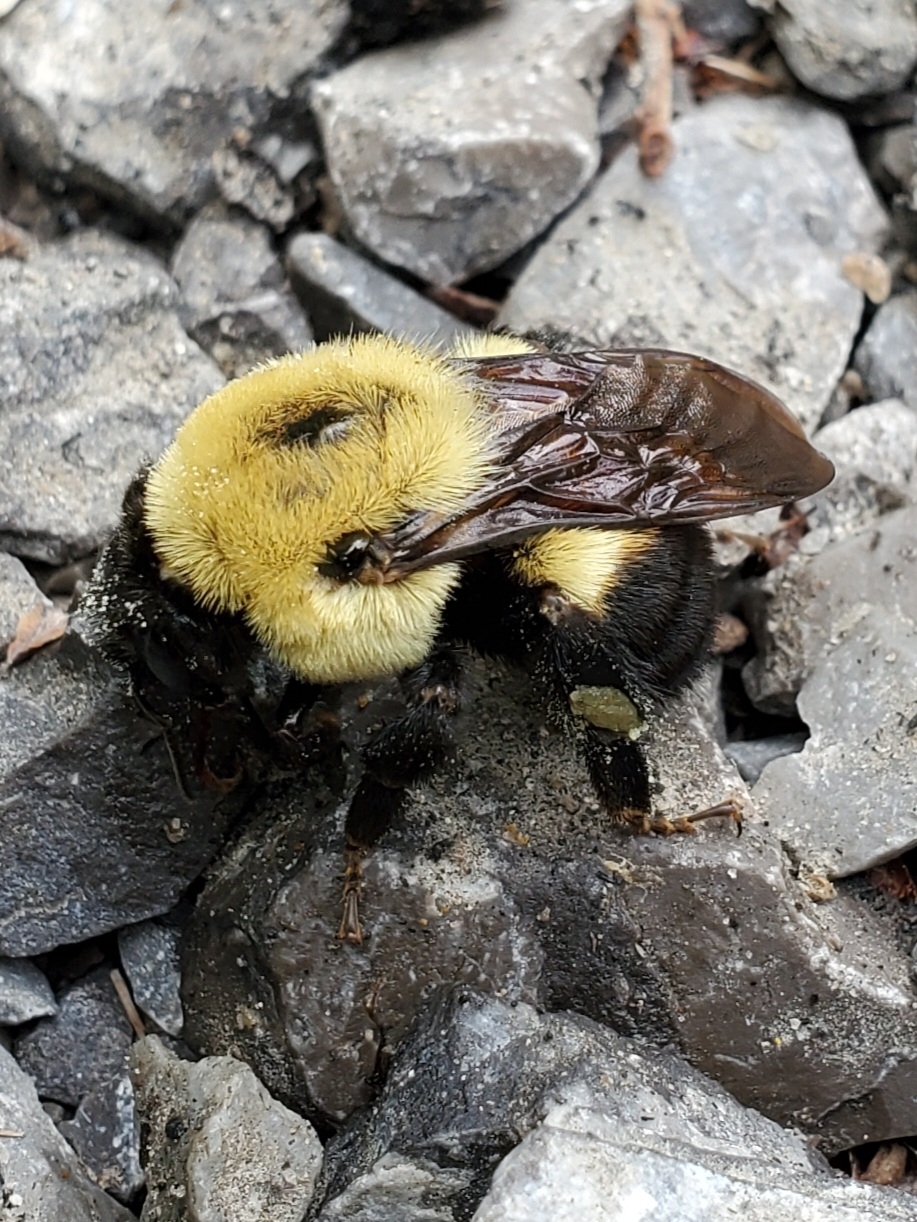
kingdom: Animalia
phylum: Arthropoda
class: Insecta
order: Hymenoptera
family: Apidae
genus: Bombus
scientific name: Bombus griseocollis
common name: Brown-belted bumble bee
